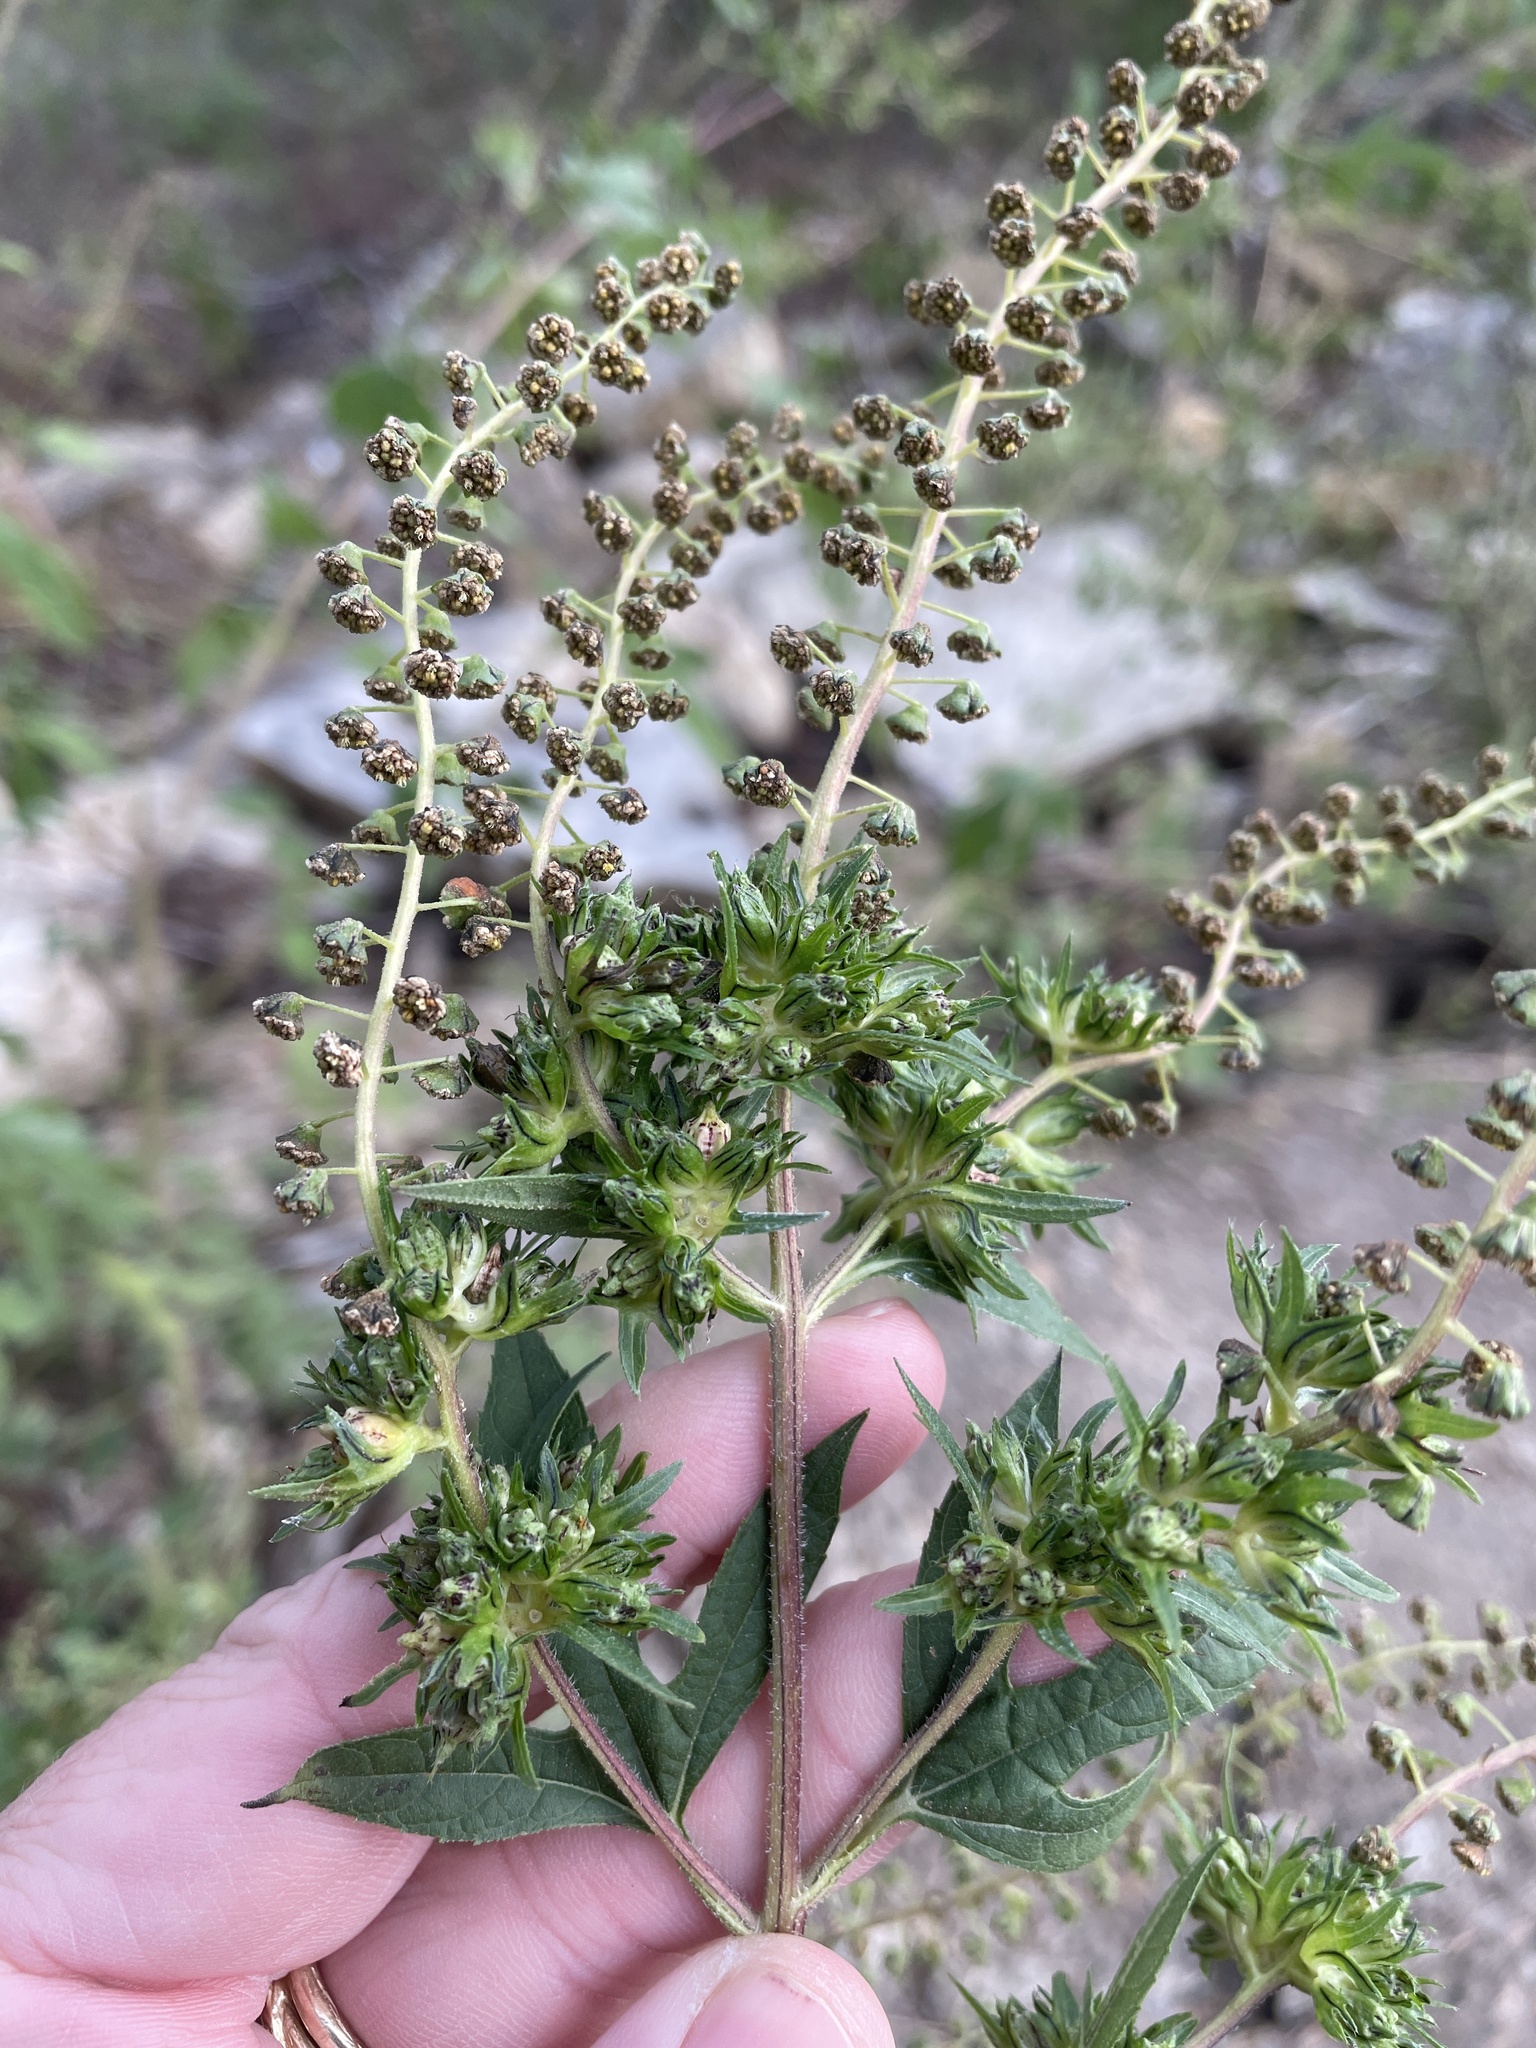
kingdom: Plantae
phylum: Tracheophyta
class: Magnoliopsida
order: Asterales
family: Asteraceae
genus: Ambrosia
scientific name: Ambrosia trifida
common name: Giant ragweed
